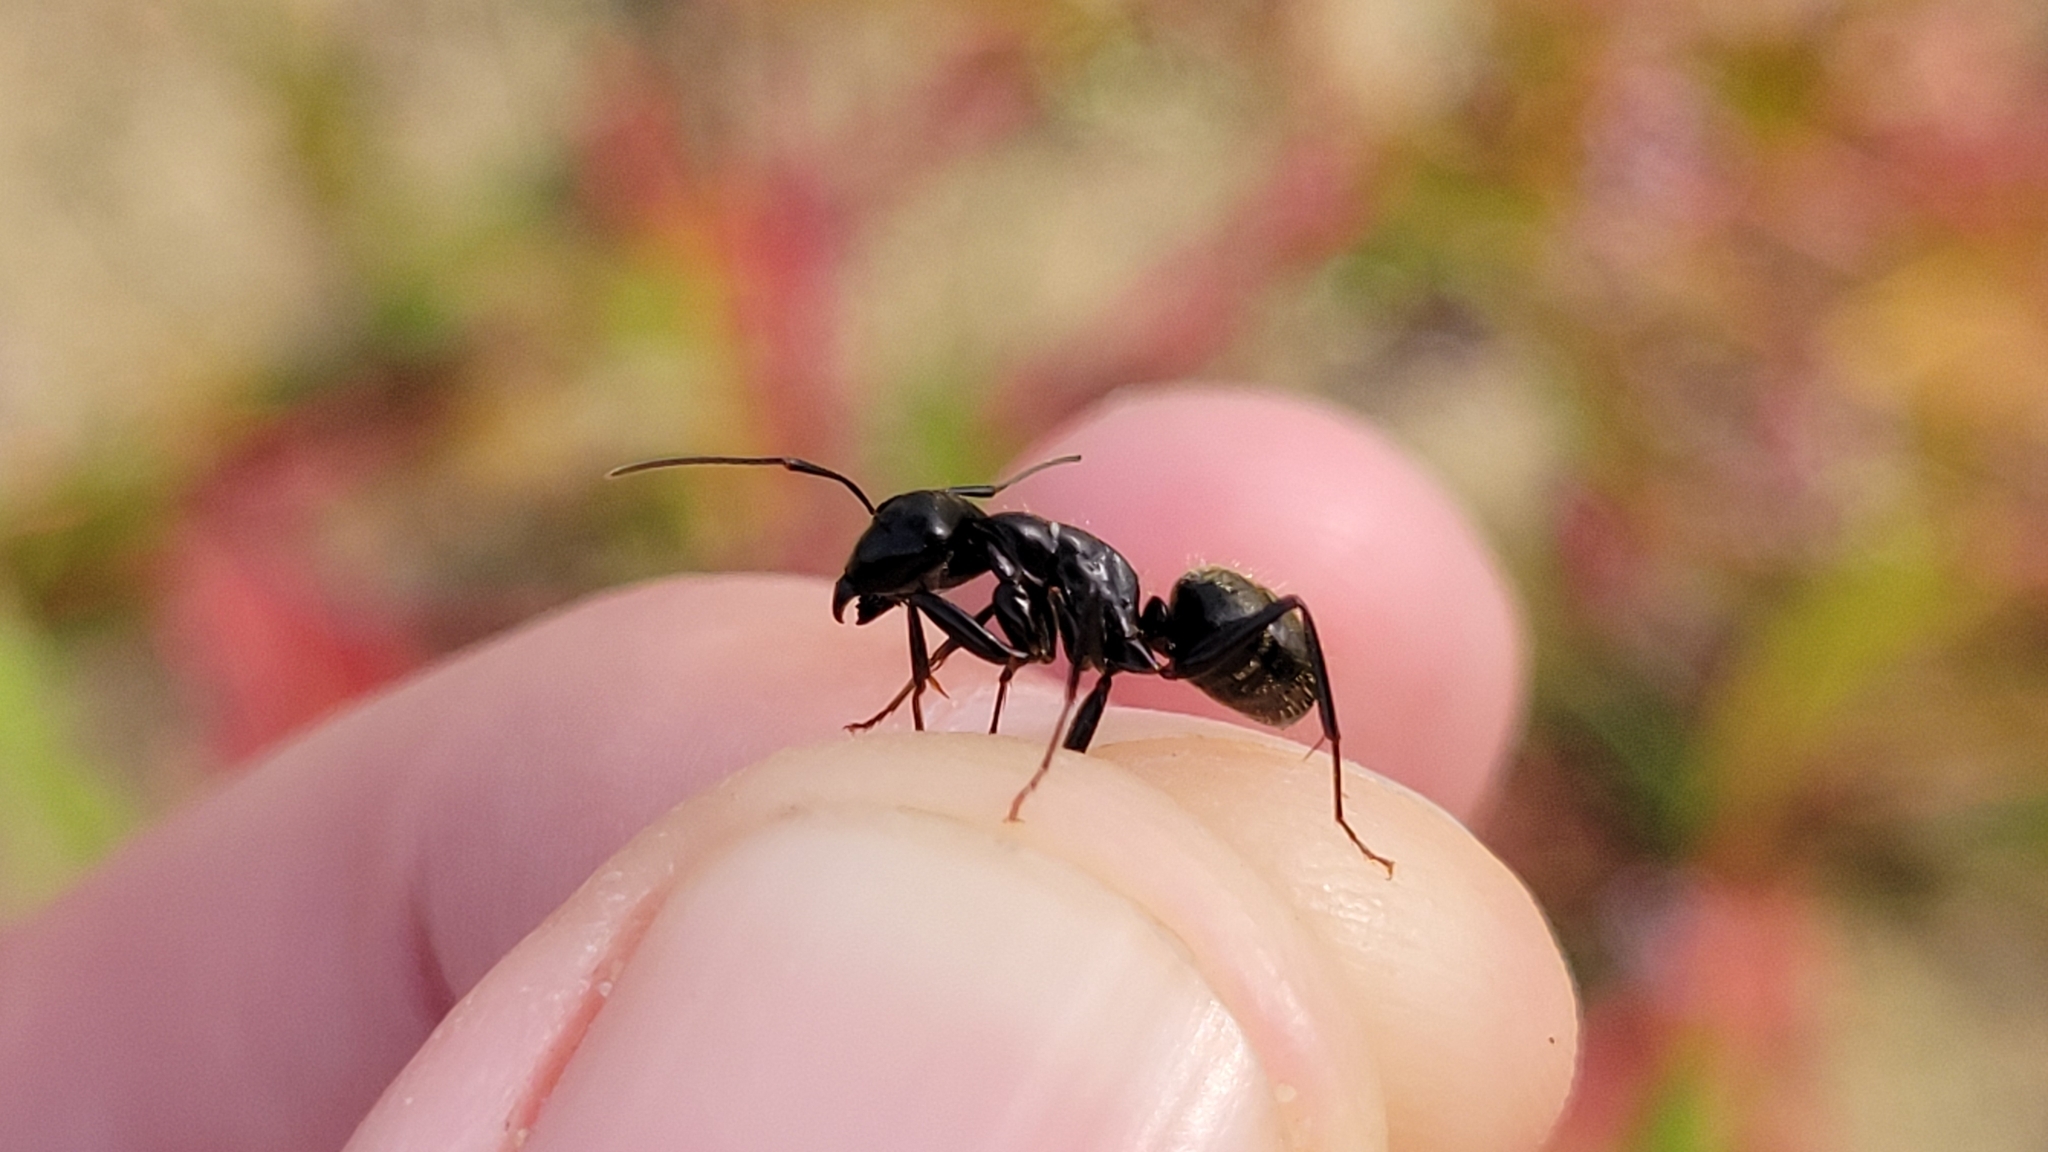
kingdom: Animalia
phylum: Arthropoda
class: Insecta
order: Hymenoptera
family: Formicidae
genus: Camponotus
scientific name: Camponotus pennsylvanicus
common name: Black carpenter ant
